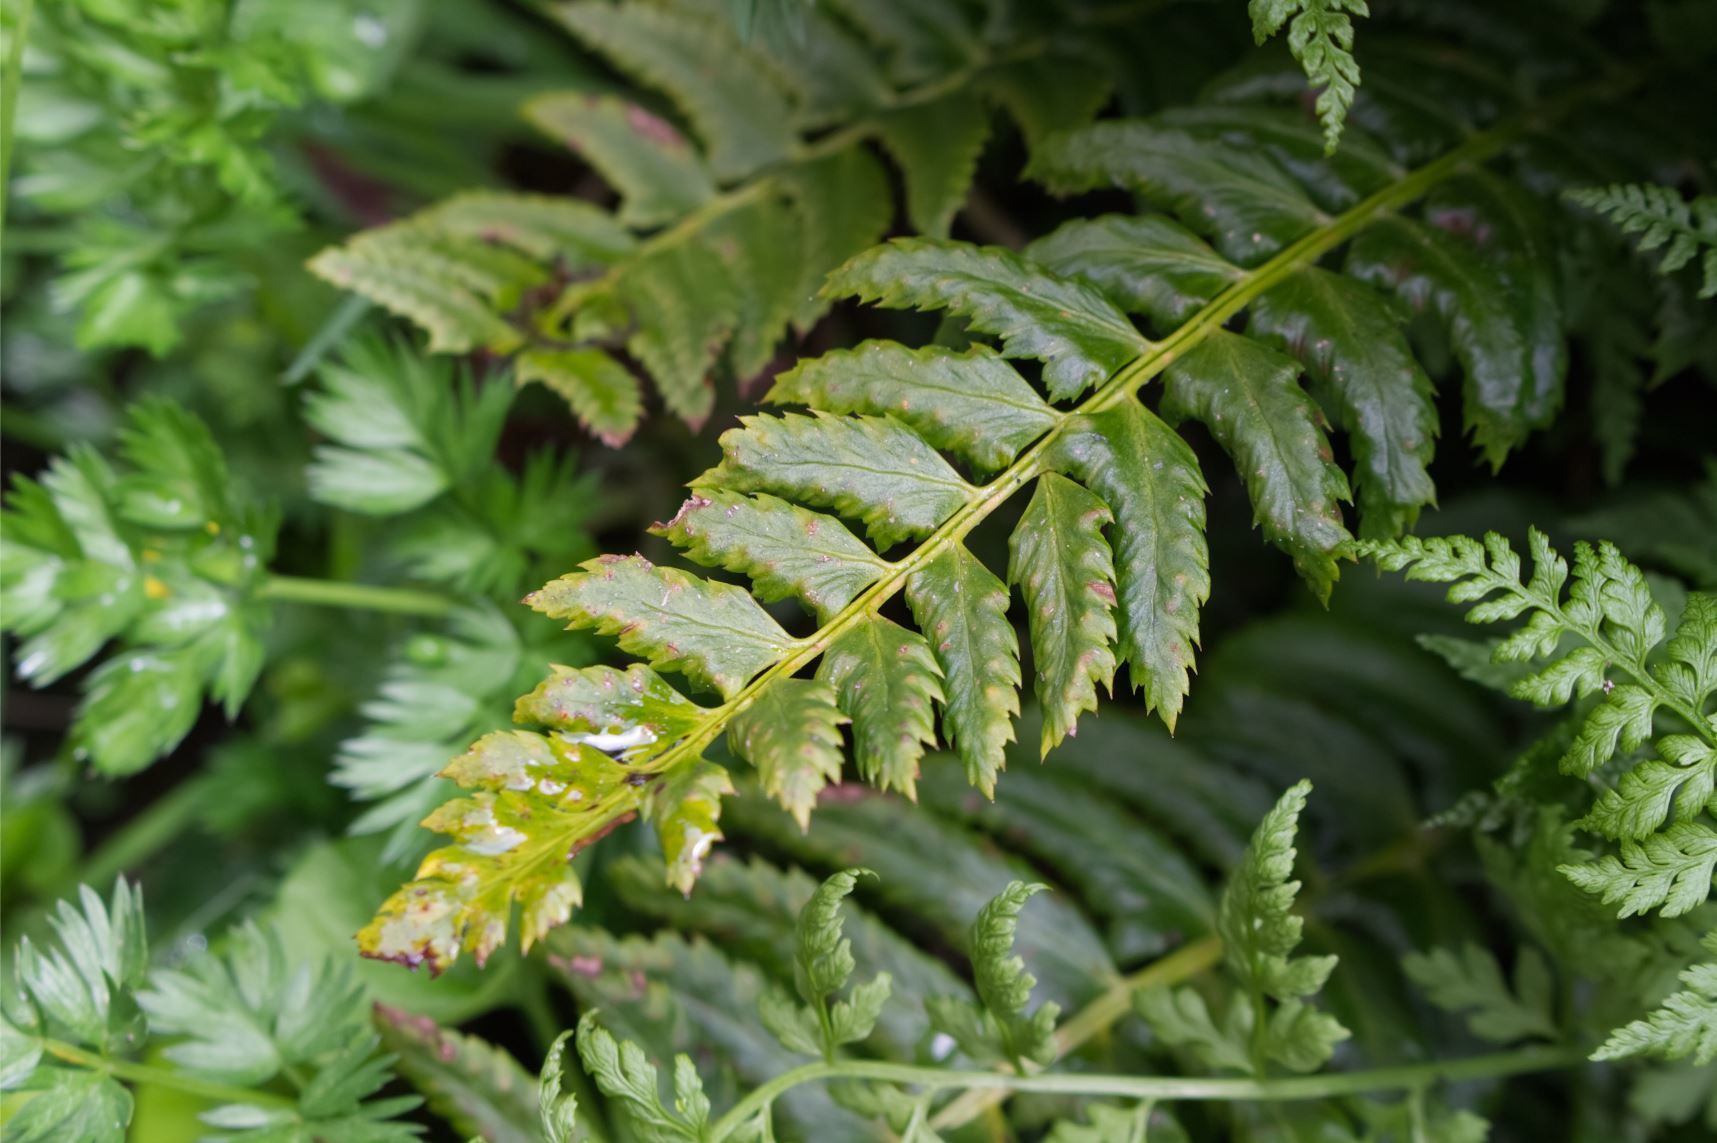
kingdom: Plantae
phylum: Tracheophyta
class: Polypodiopsida
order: Polypodiales
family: Dryopteridaceae
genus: Polystichum
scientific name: Polystichum lonchitis
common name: Holly fern
